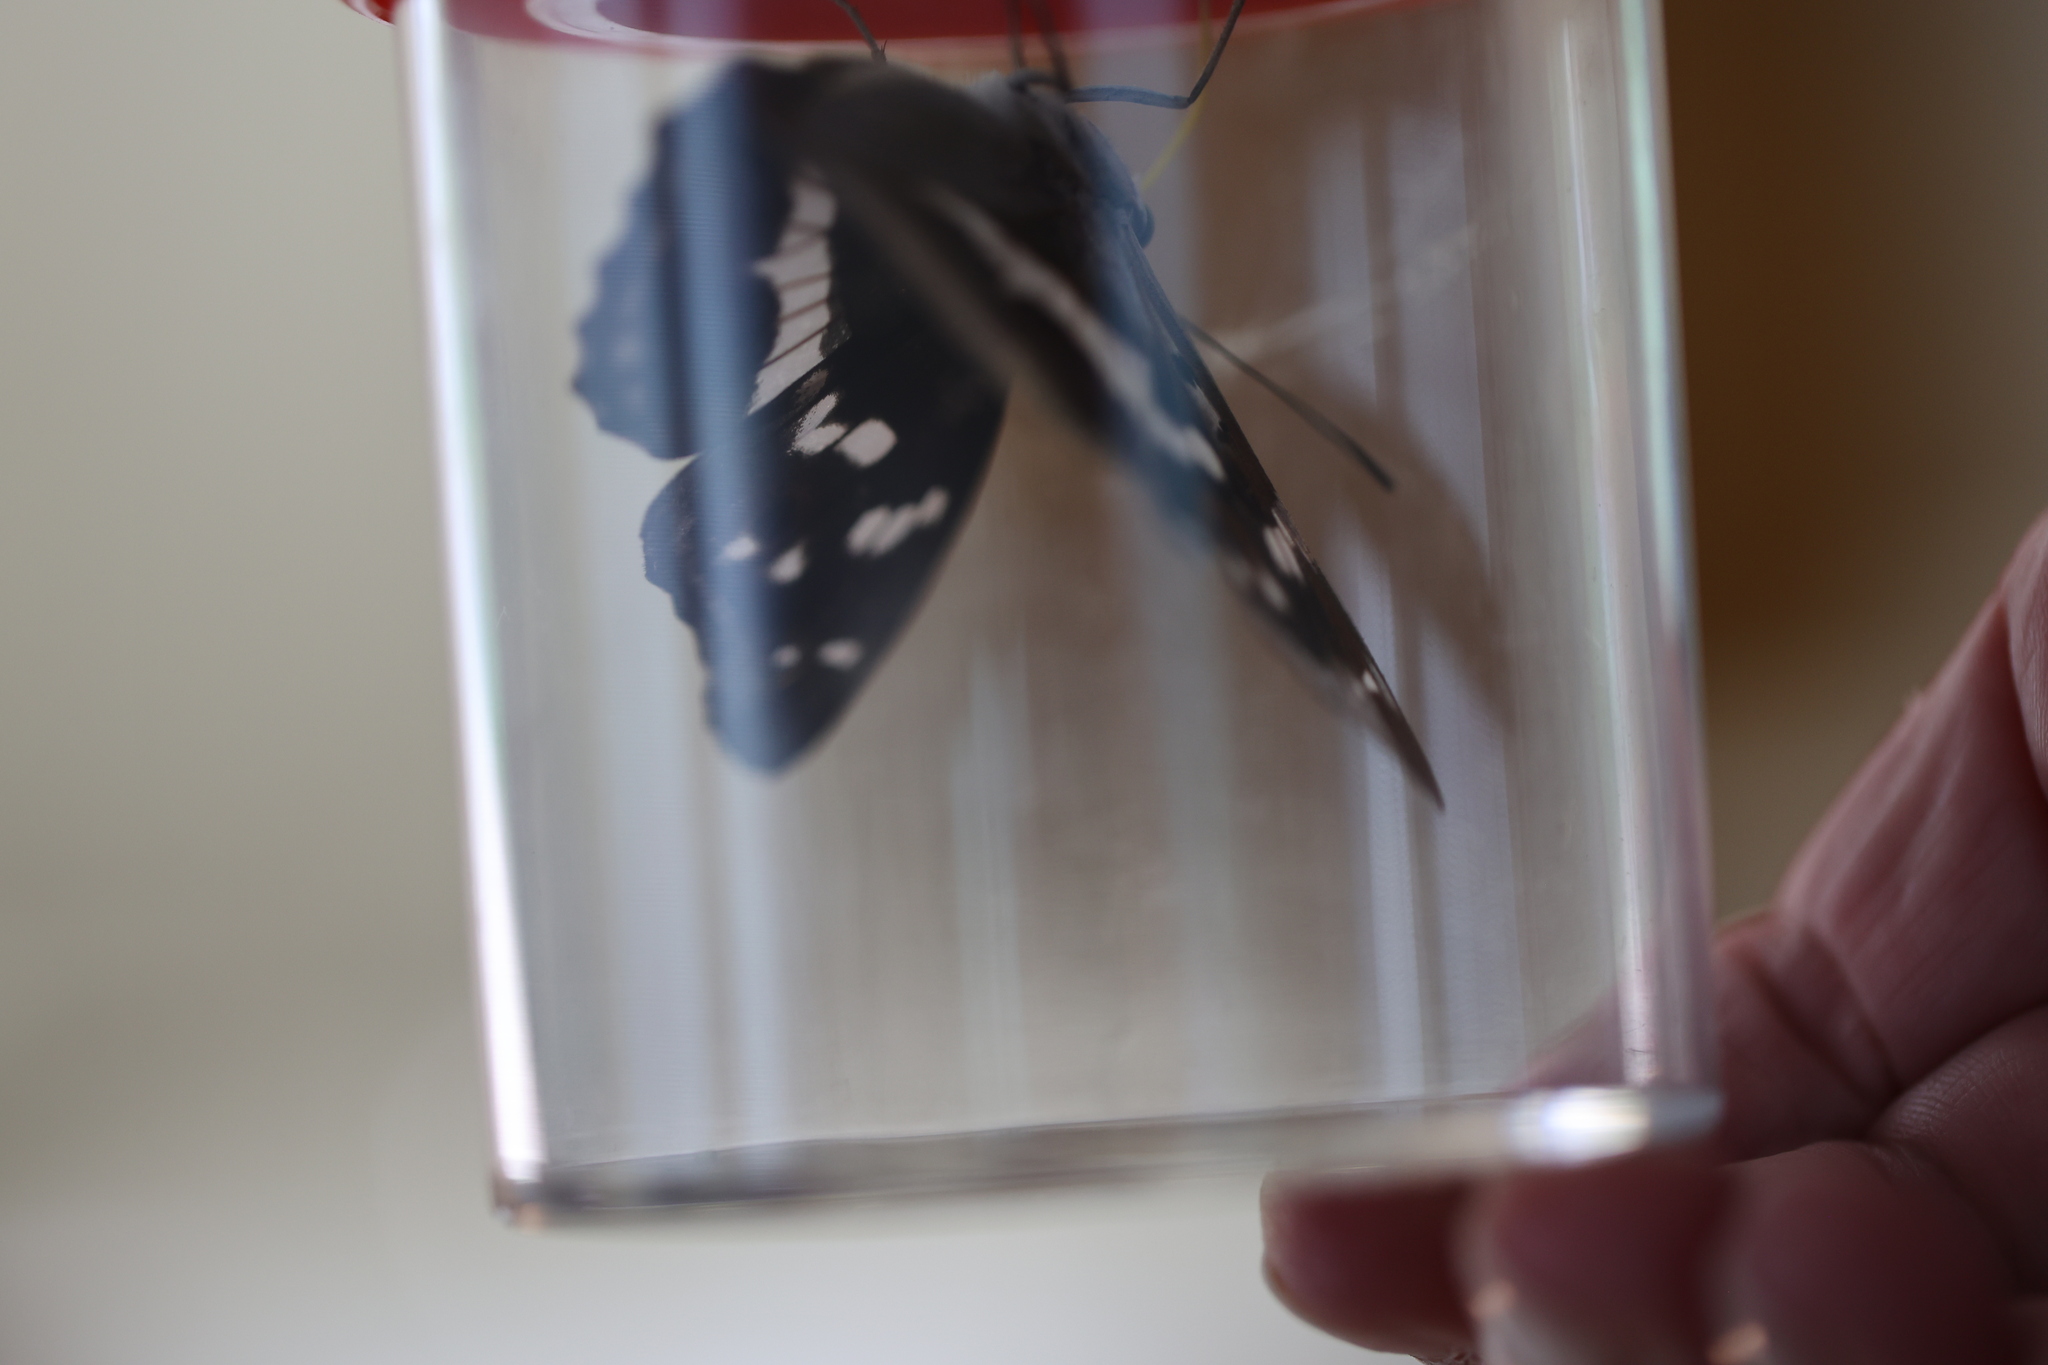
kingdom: Animalia
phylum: Arthropoda
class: Insecta
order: Lepidoptera
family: Nymphalidae
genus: Apatura
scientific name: Apatura iris
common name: Purple emperor
